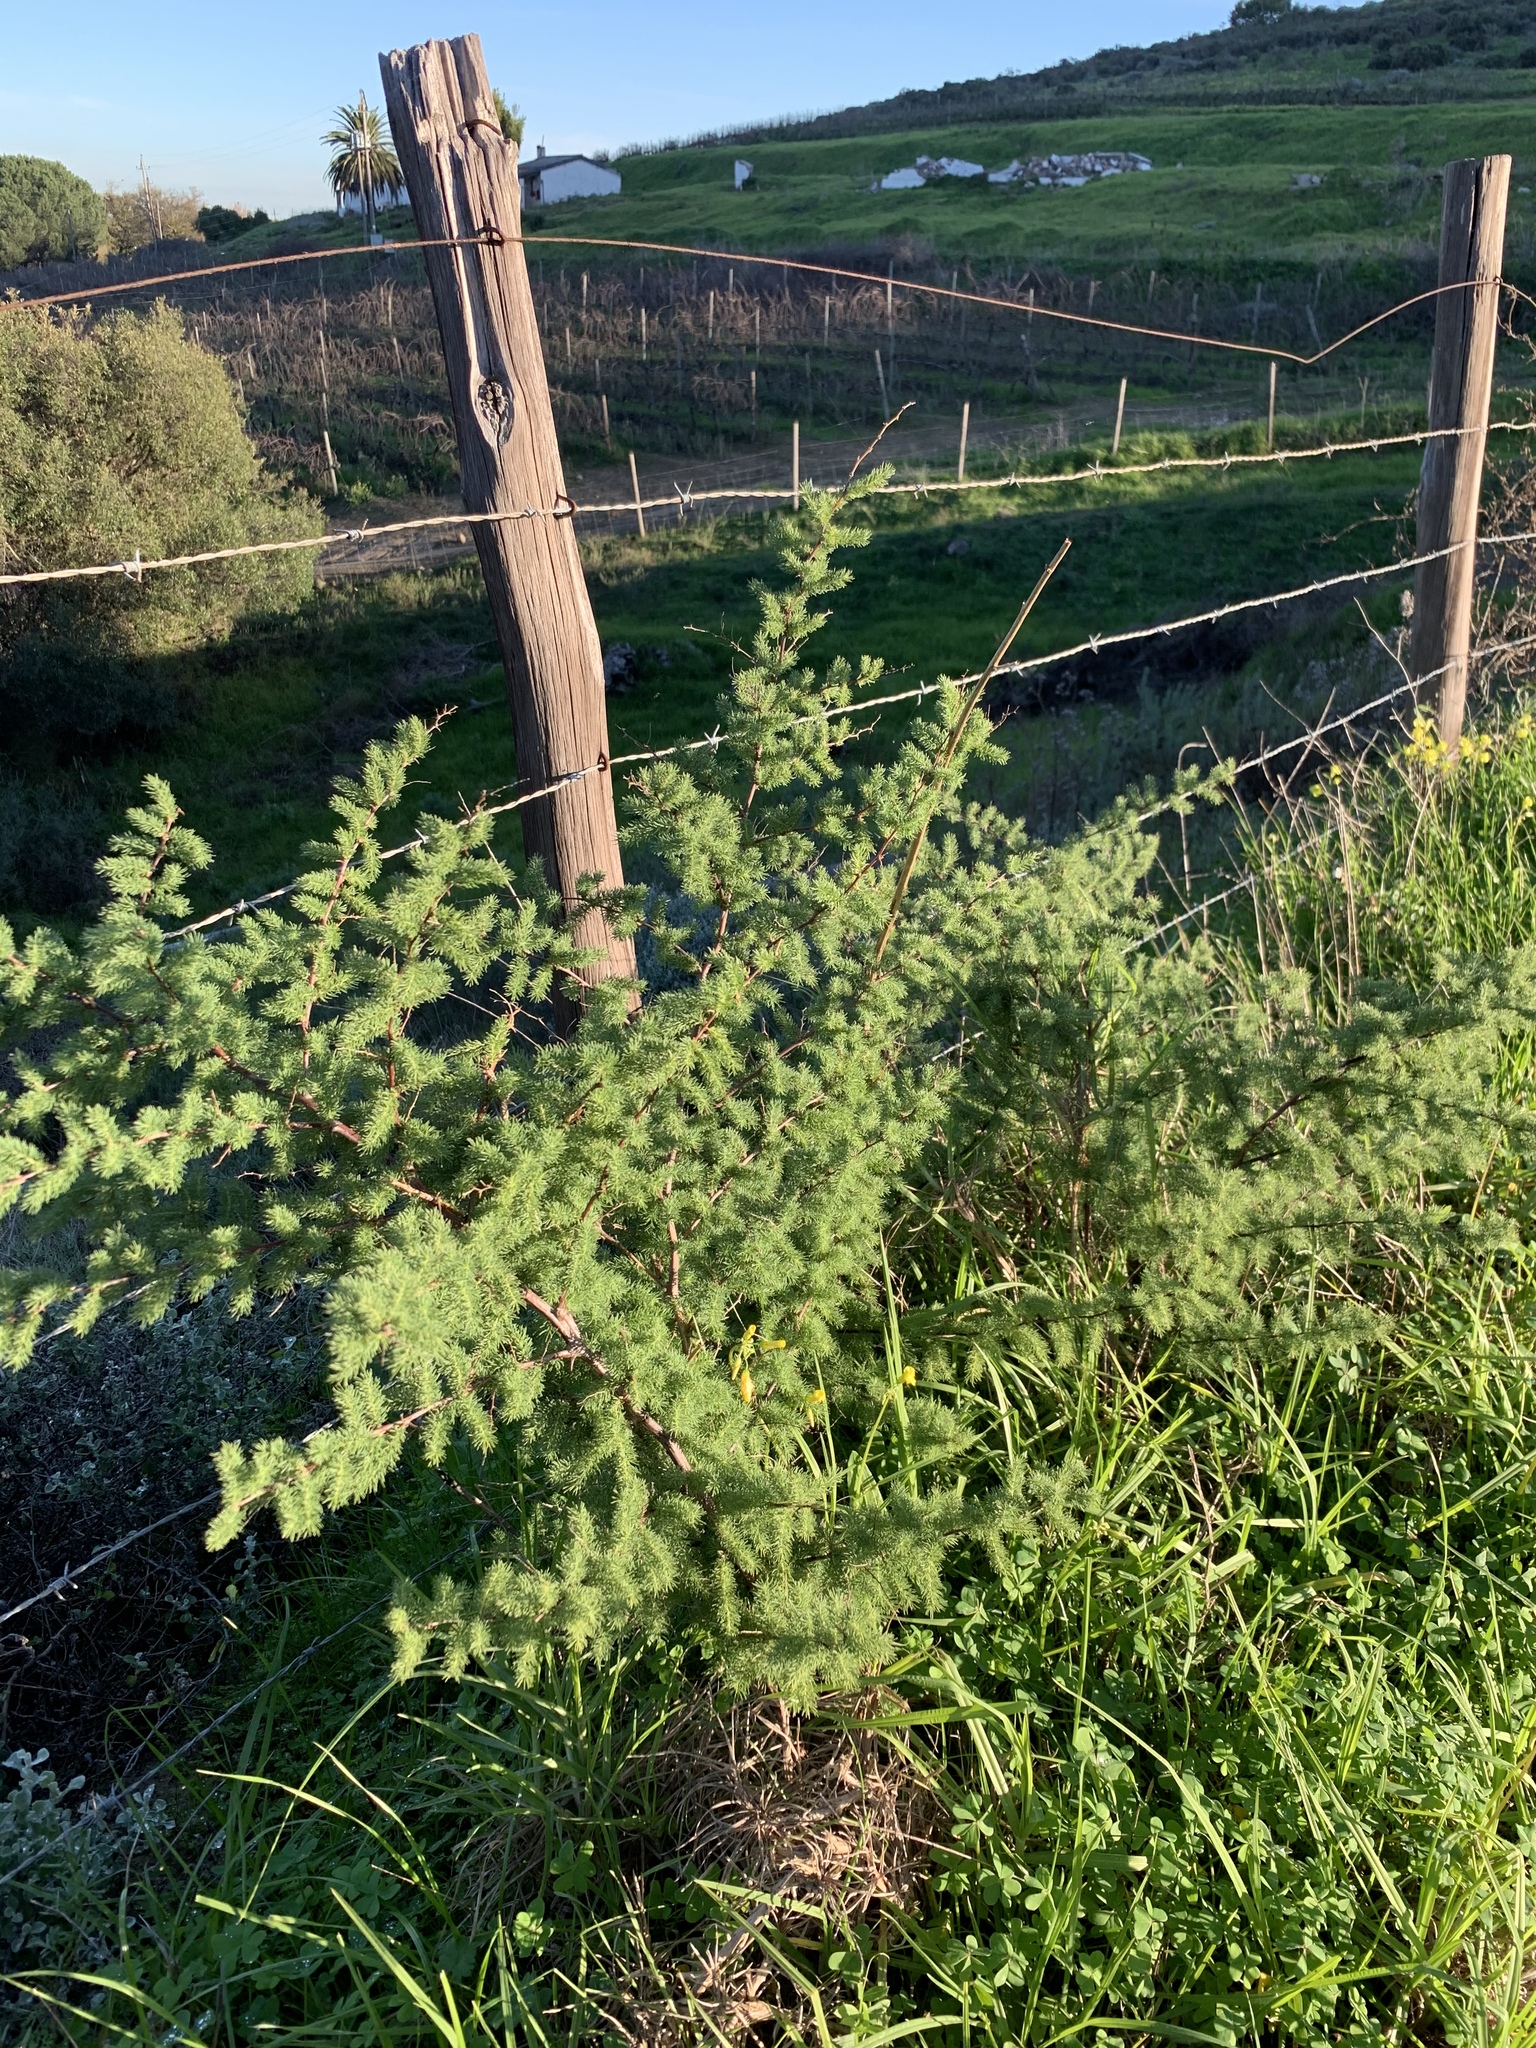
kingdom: Plantae
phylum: Tracheophyta
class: Liliopsida
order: Asparagales
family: Asparagaceae
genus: Asparagus
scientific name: Asparagus rubicundus
